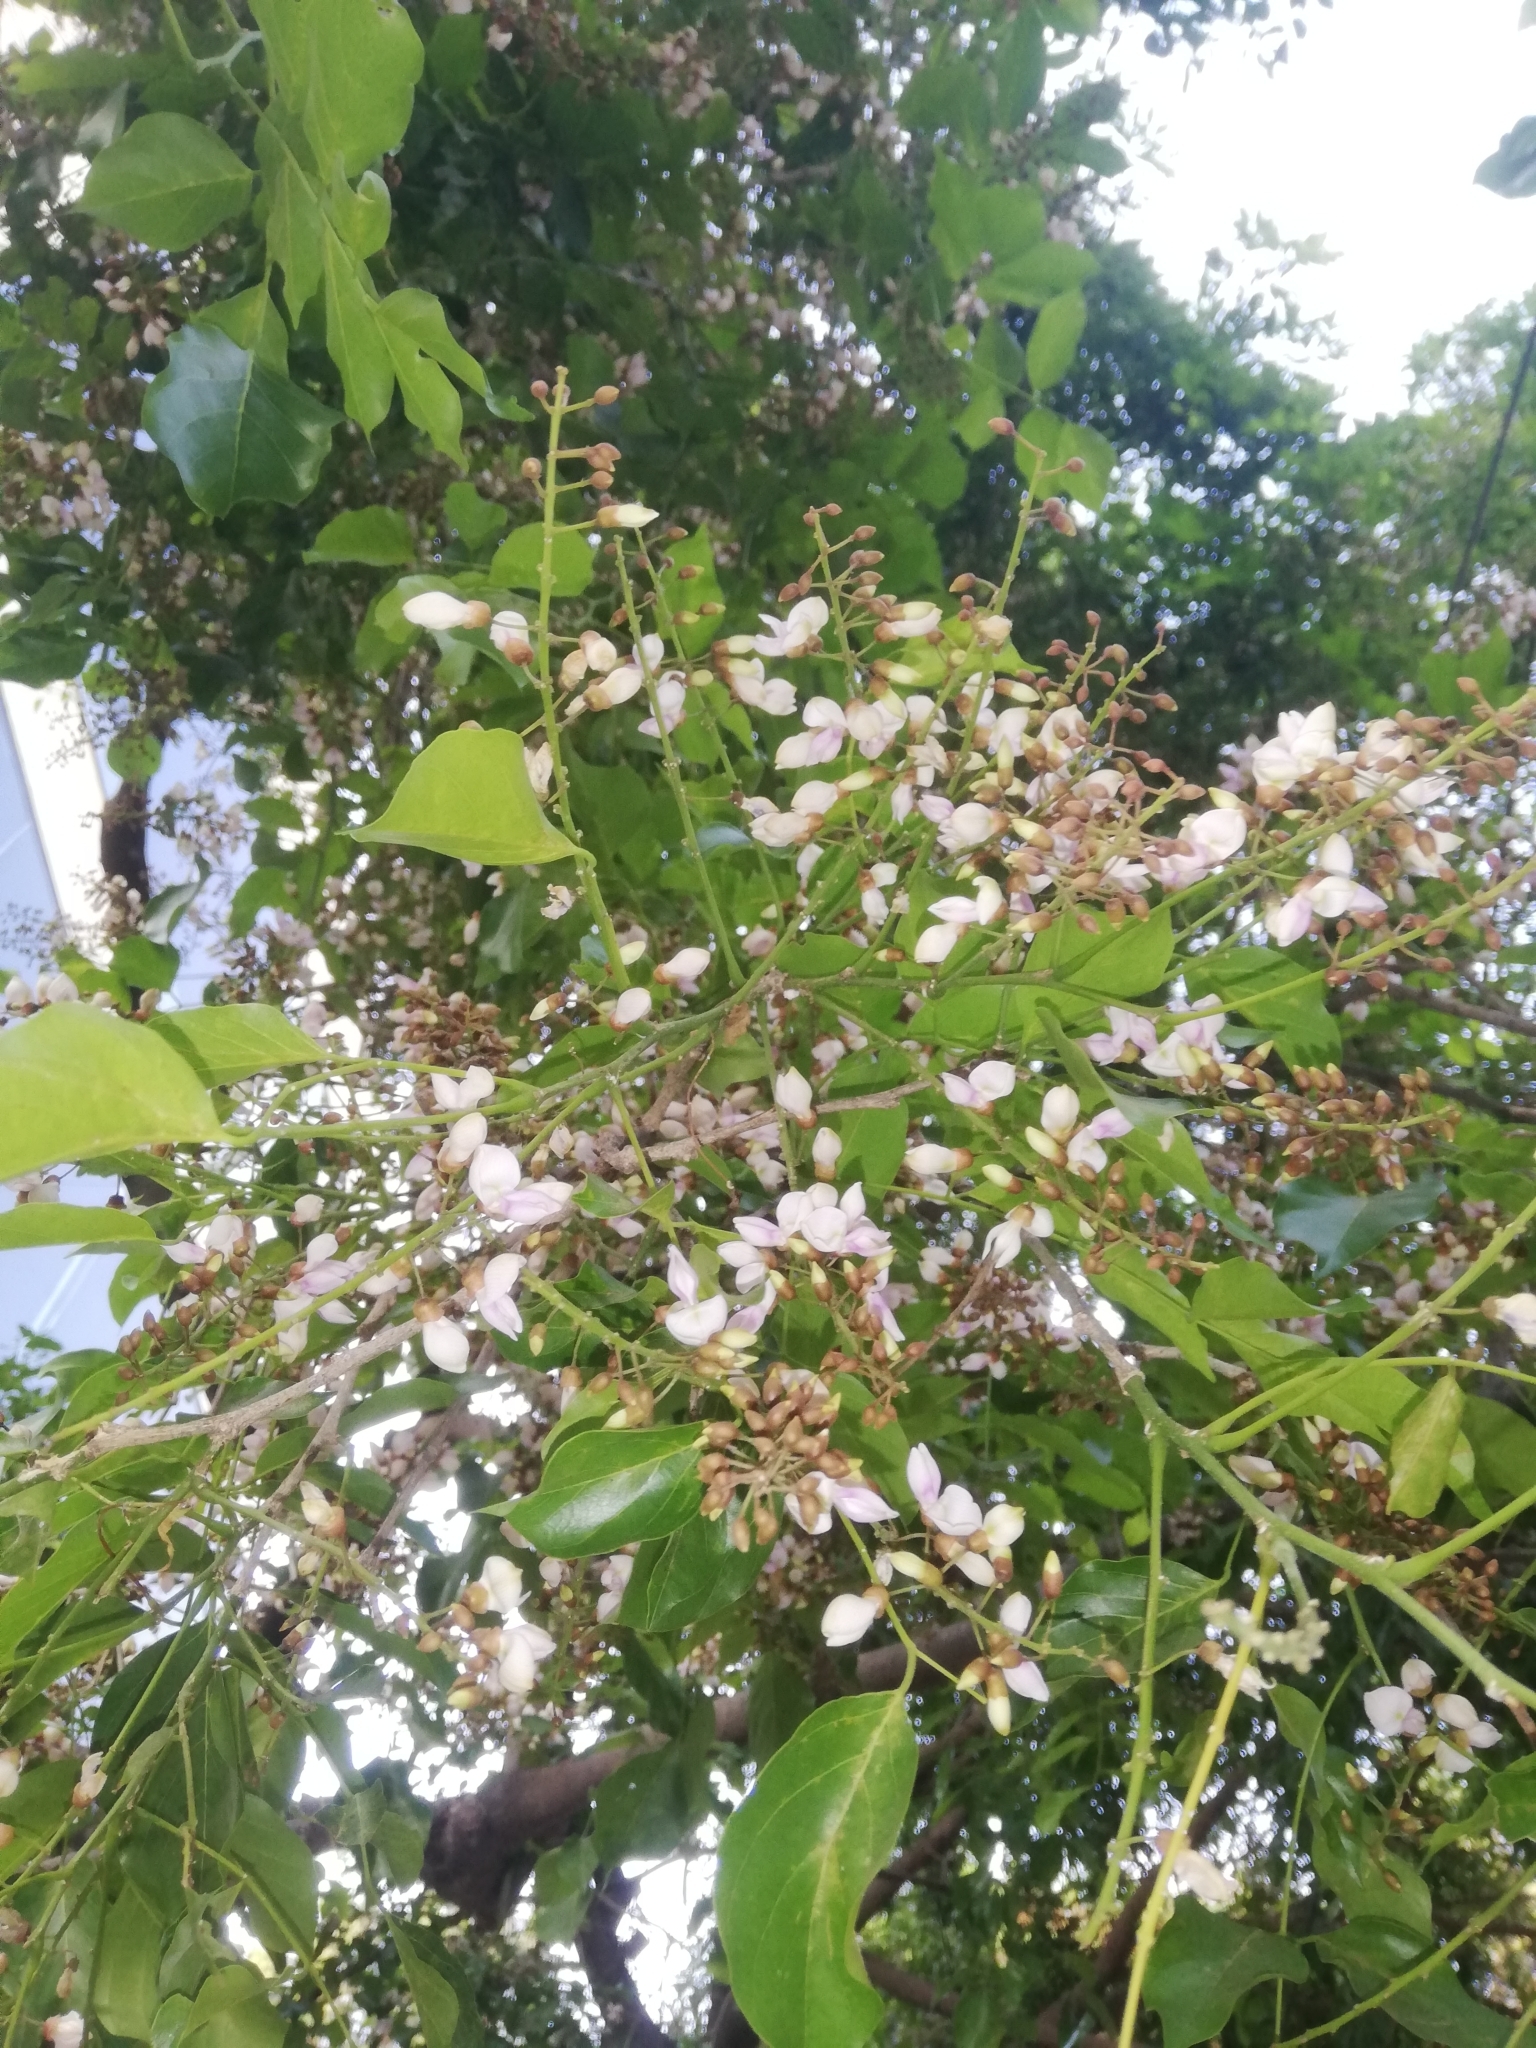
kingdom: Plantae
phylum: Tracheophyta
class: Magnoliopsida
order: Fabales
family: Fabaceae
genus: Pongamia
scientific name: Pongamia pinnata
